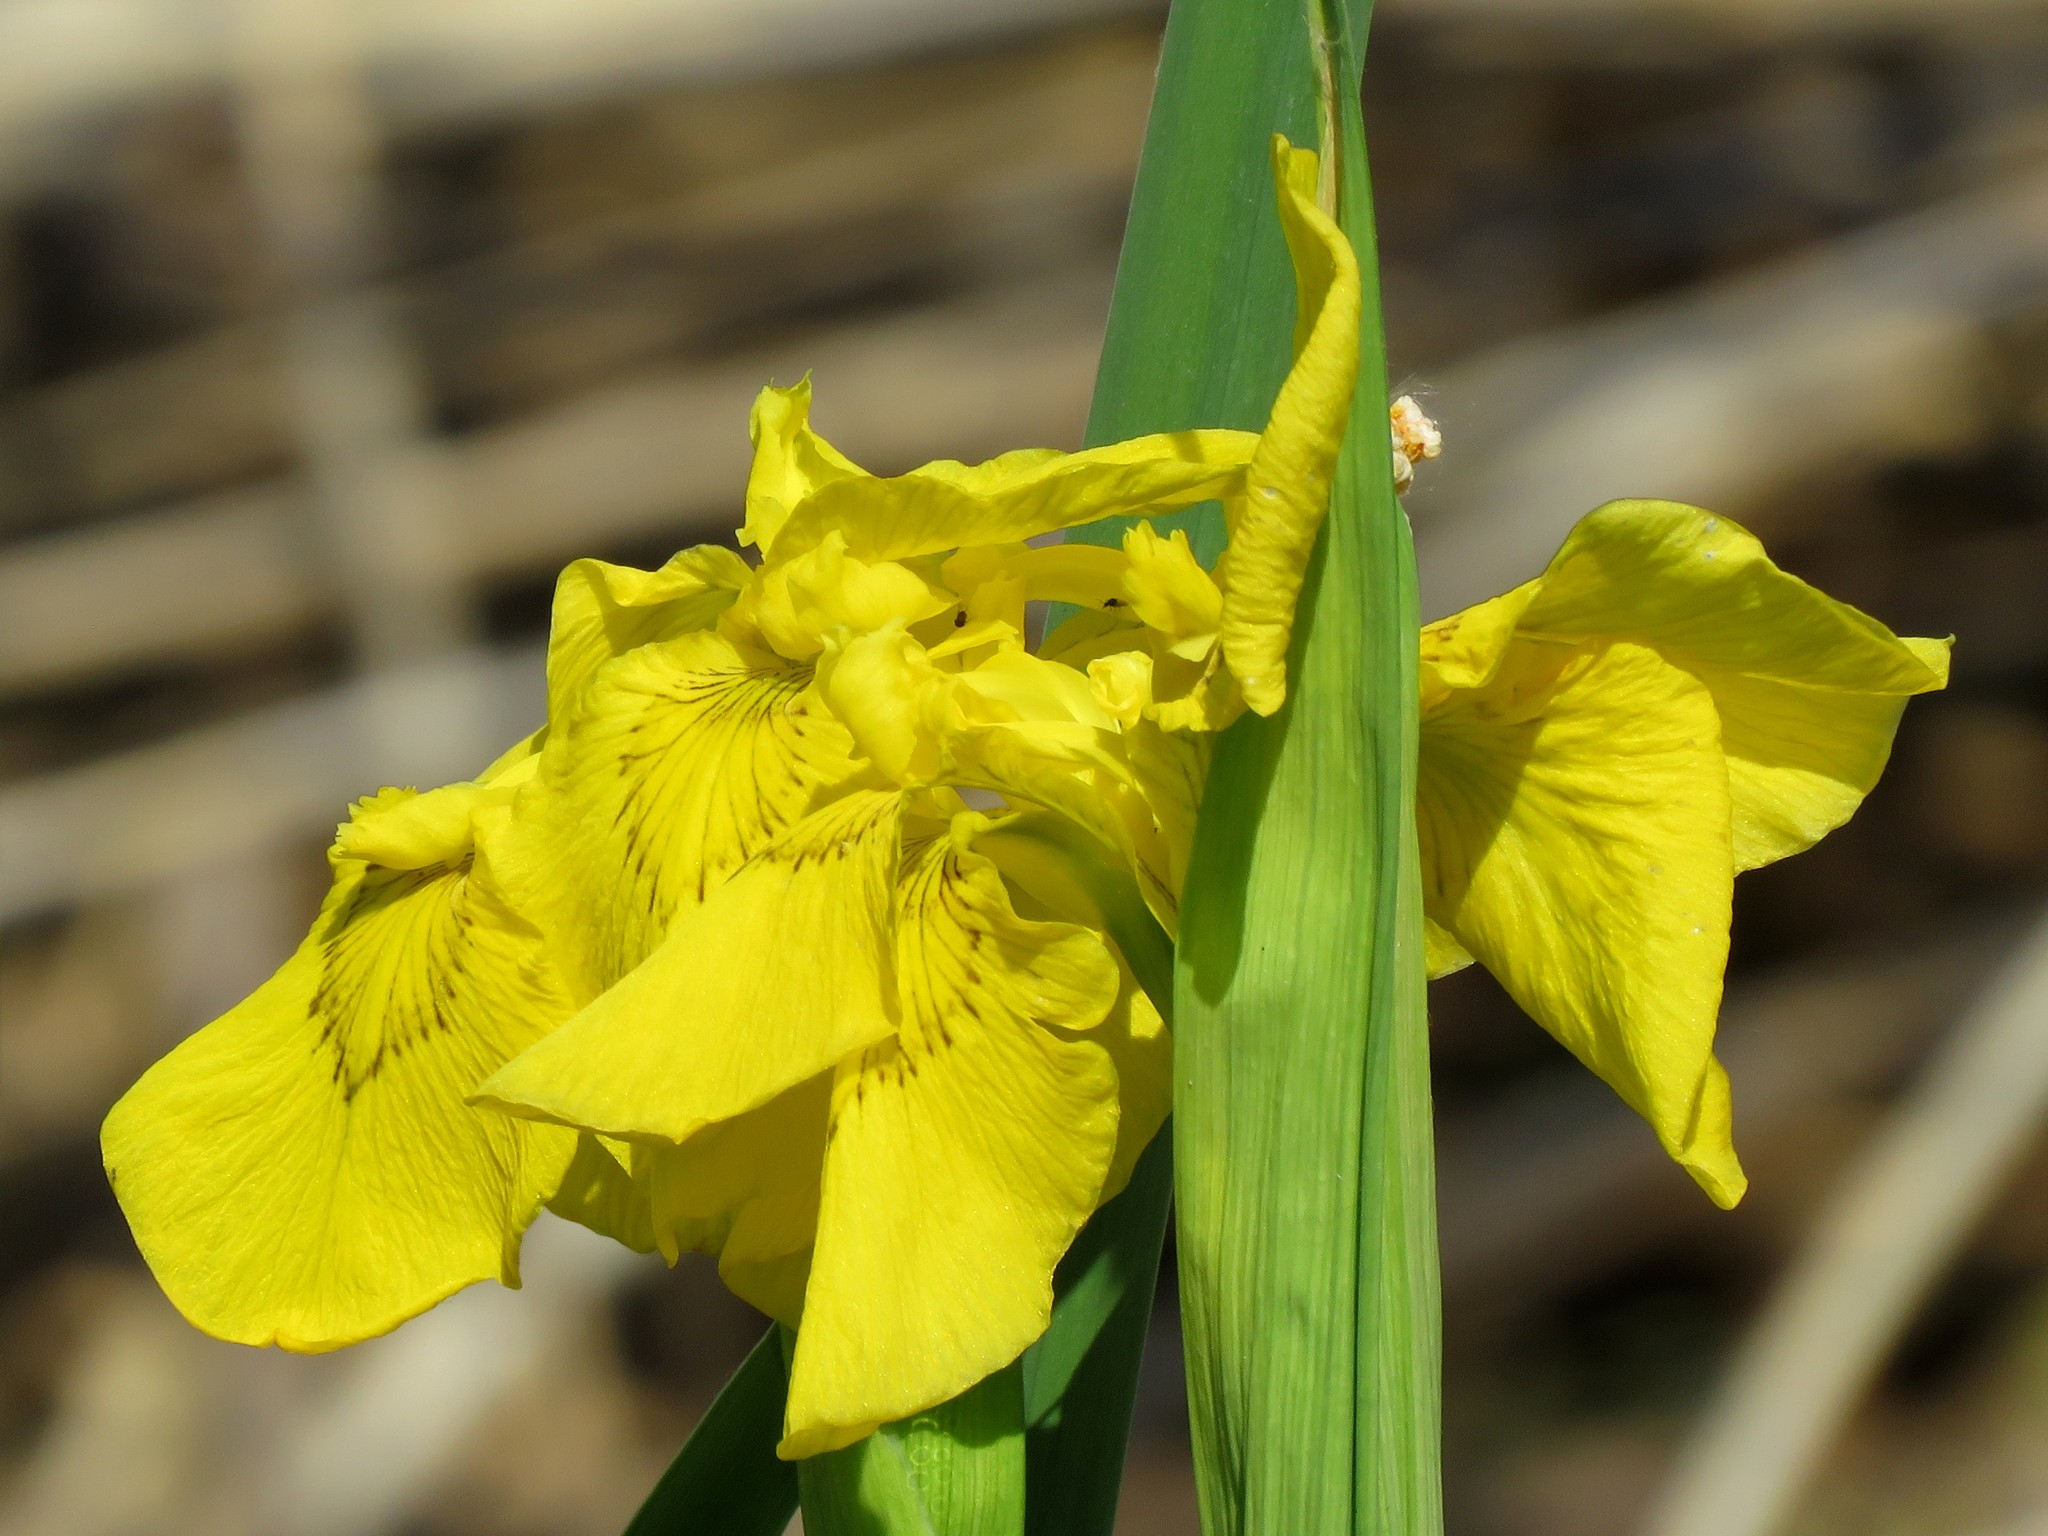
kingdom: Plantae
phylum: Tracheophyta
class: Liliopsida
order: Asparagales
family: Iridaceae
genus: Iris
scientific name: Iris pseudacorus
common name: Yellow flag
